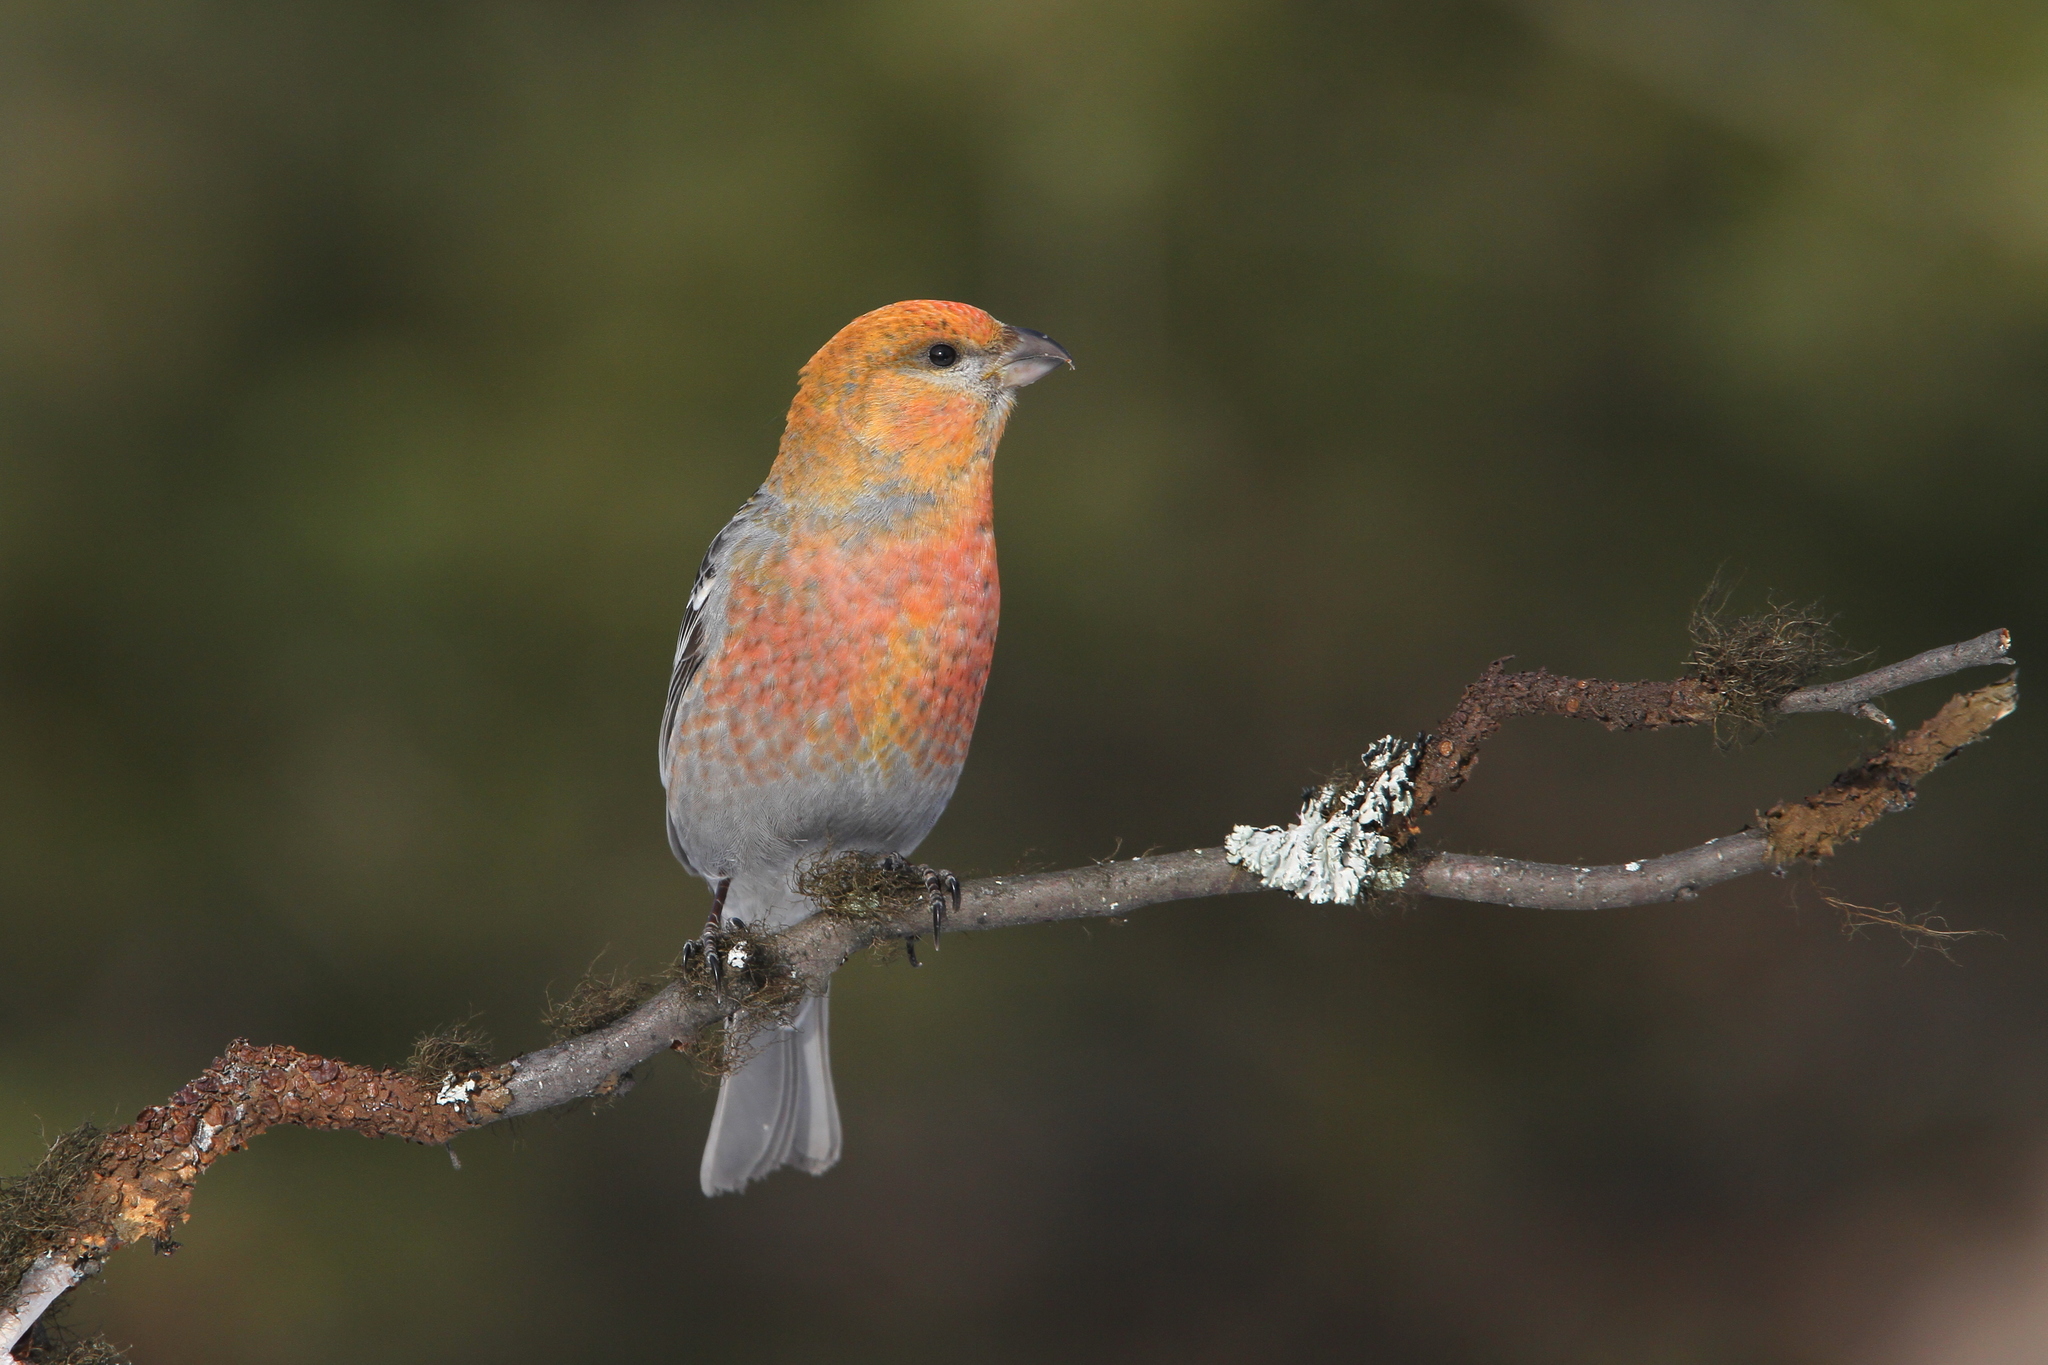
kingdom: Animalia
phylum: Chordata
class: Aves
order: Passeriformes
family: Fringillidae
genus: Pinicola
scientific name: Pinicola enucleator
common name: Pine grosbeak
